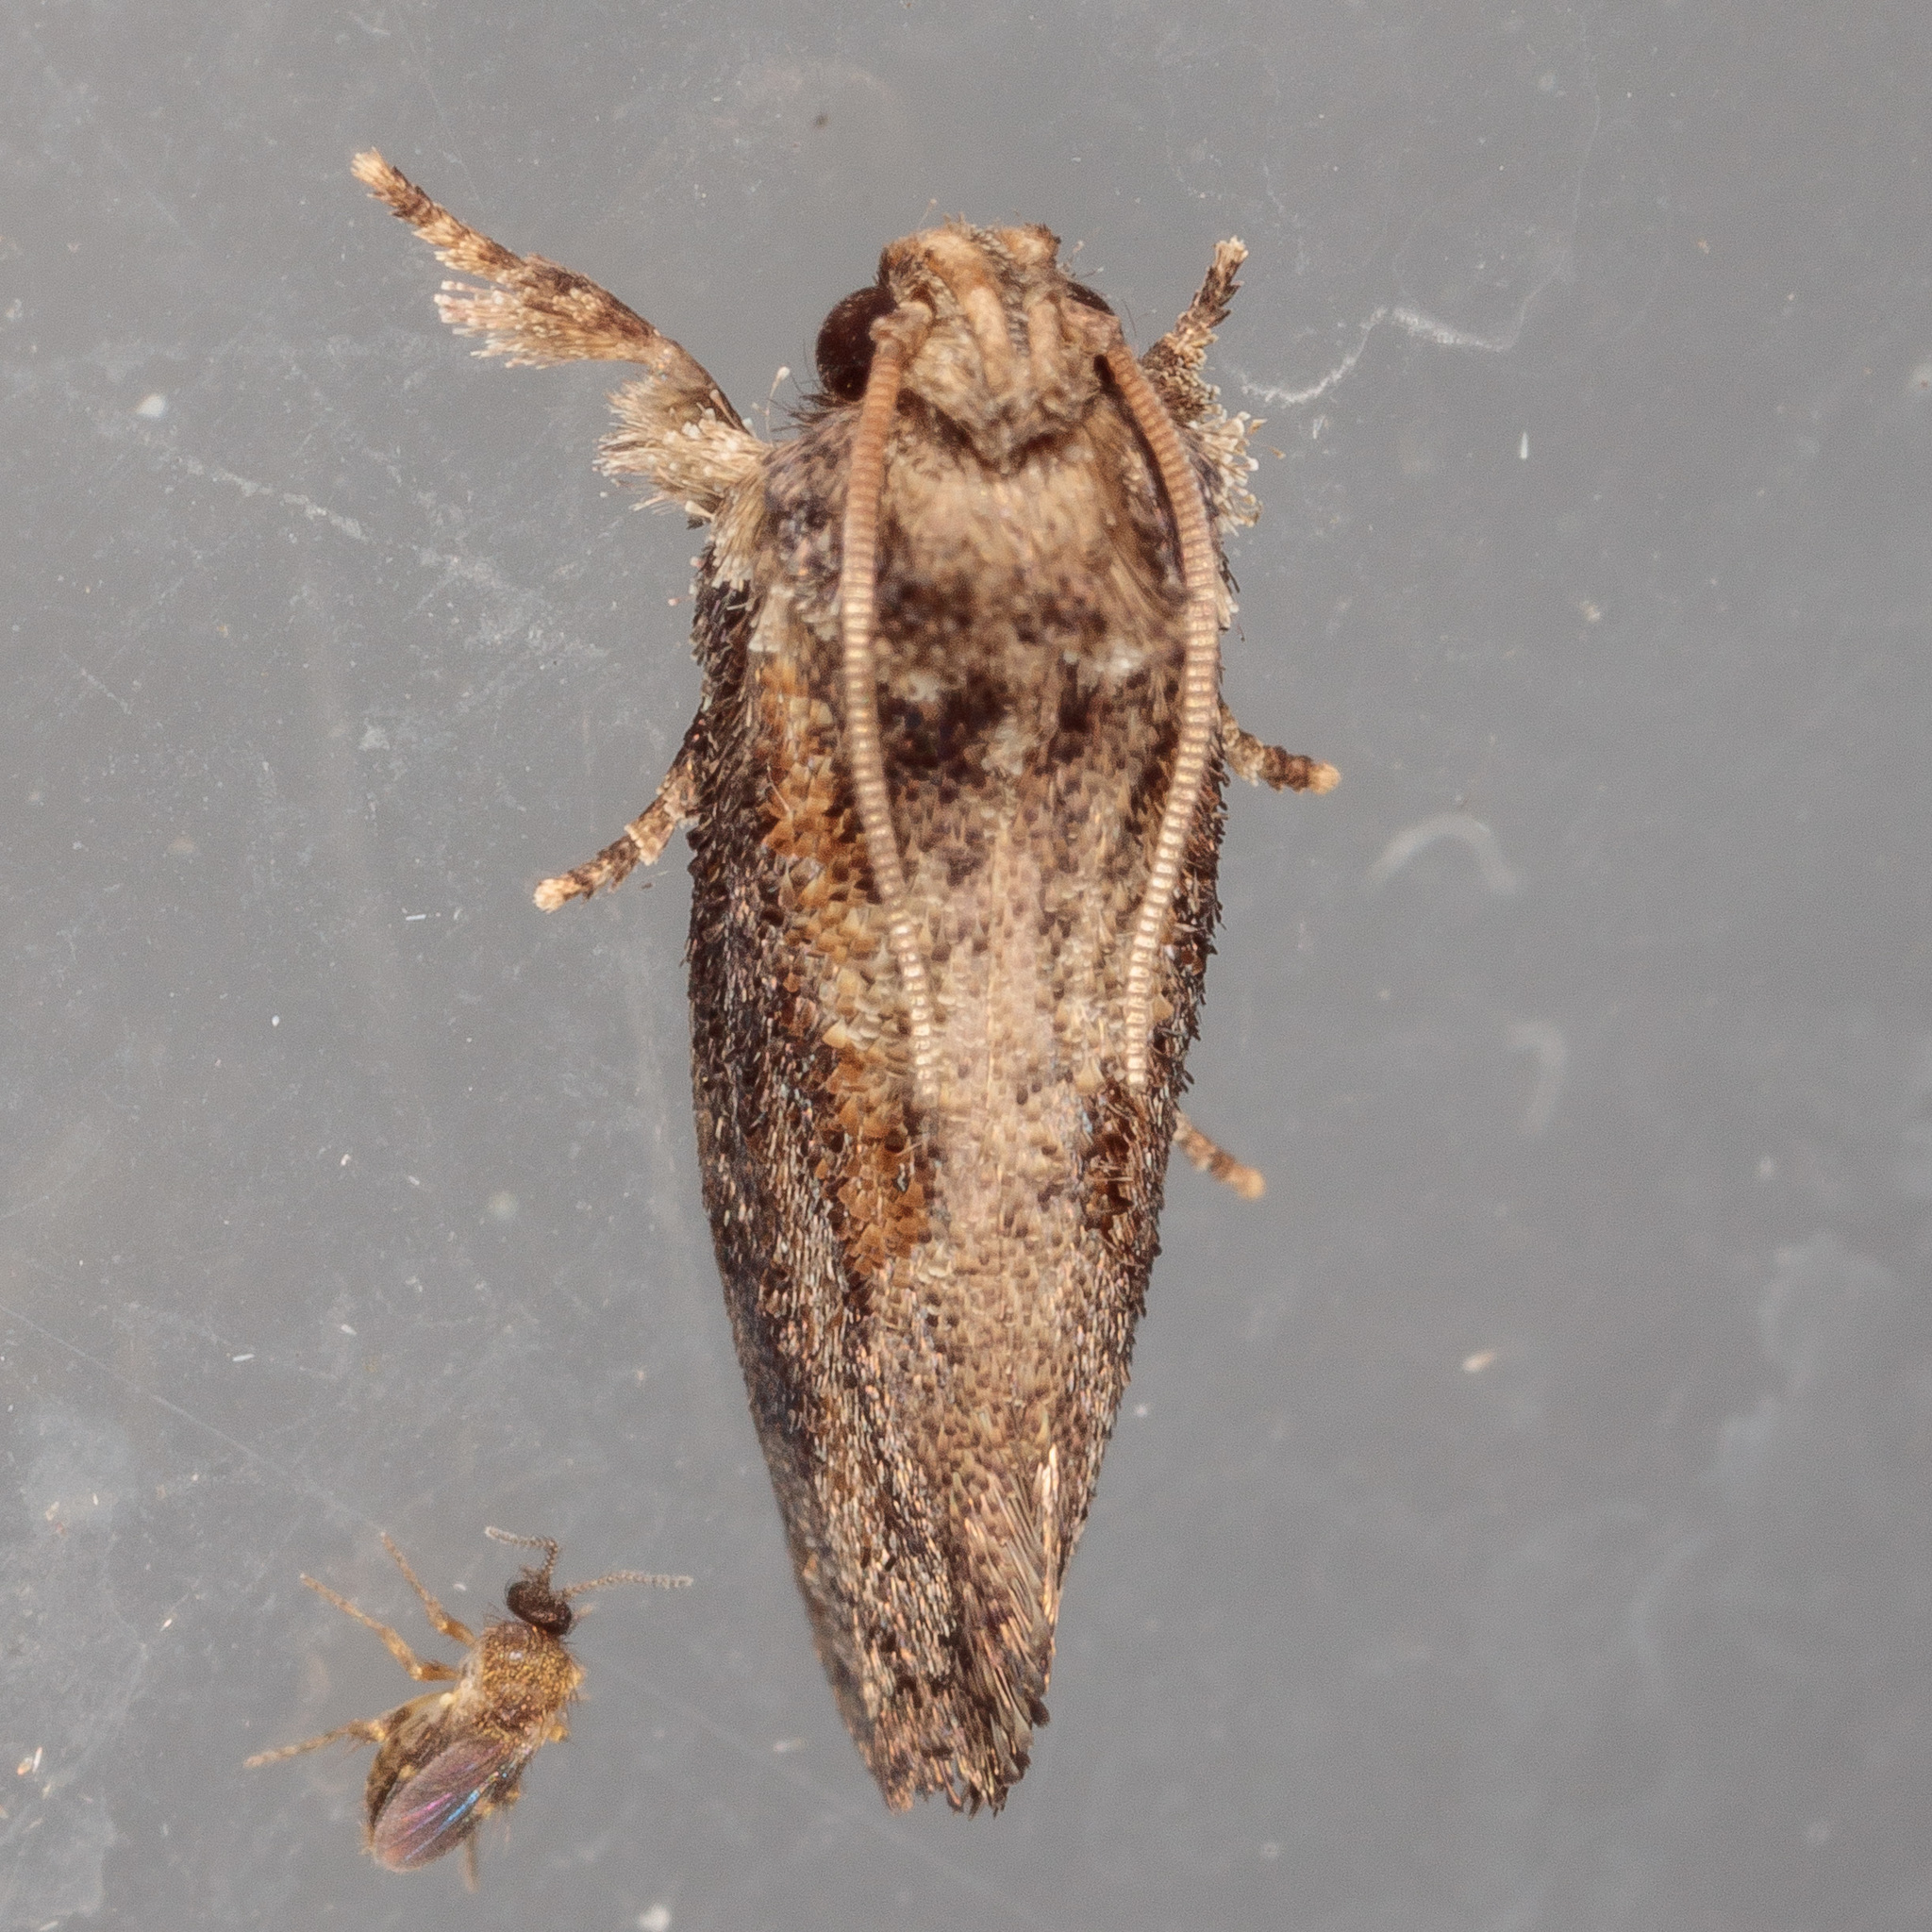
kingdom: Animalia
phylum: Arthropoda
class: Insecta
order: Lepidoptera
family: Tineidae
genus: Acrolophus
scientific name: Acrolophus piger
